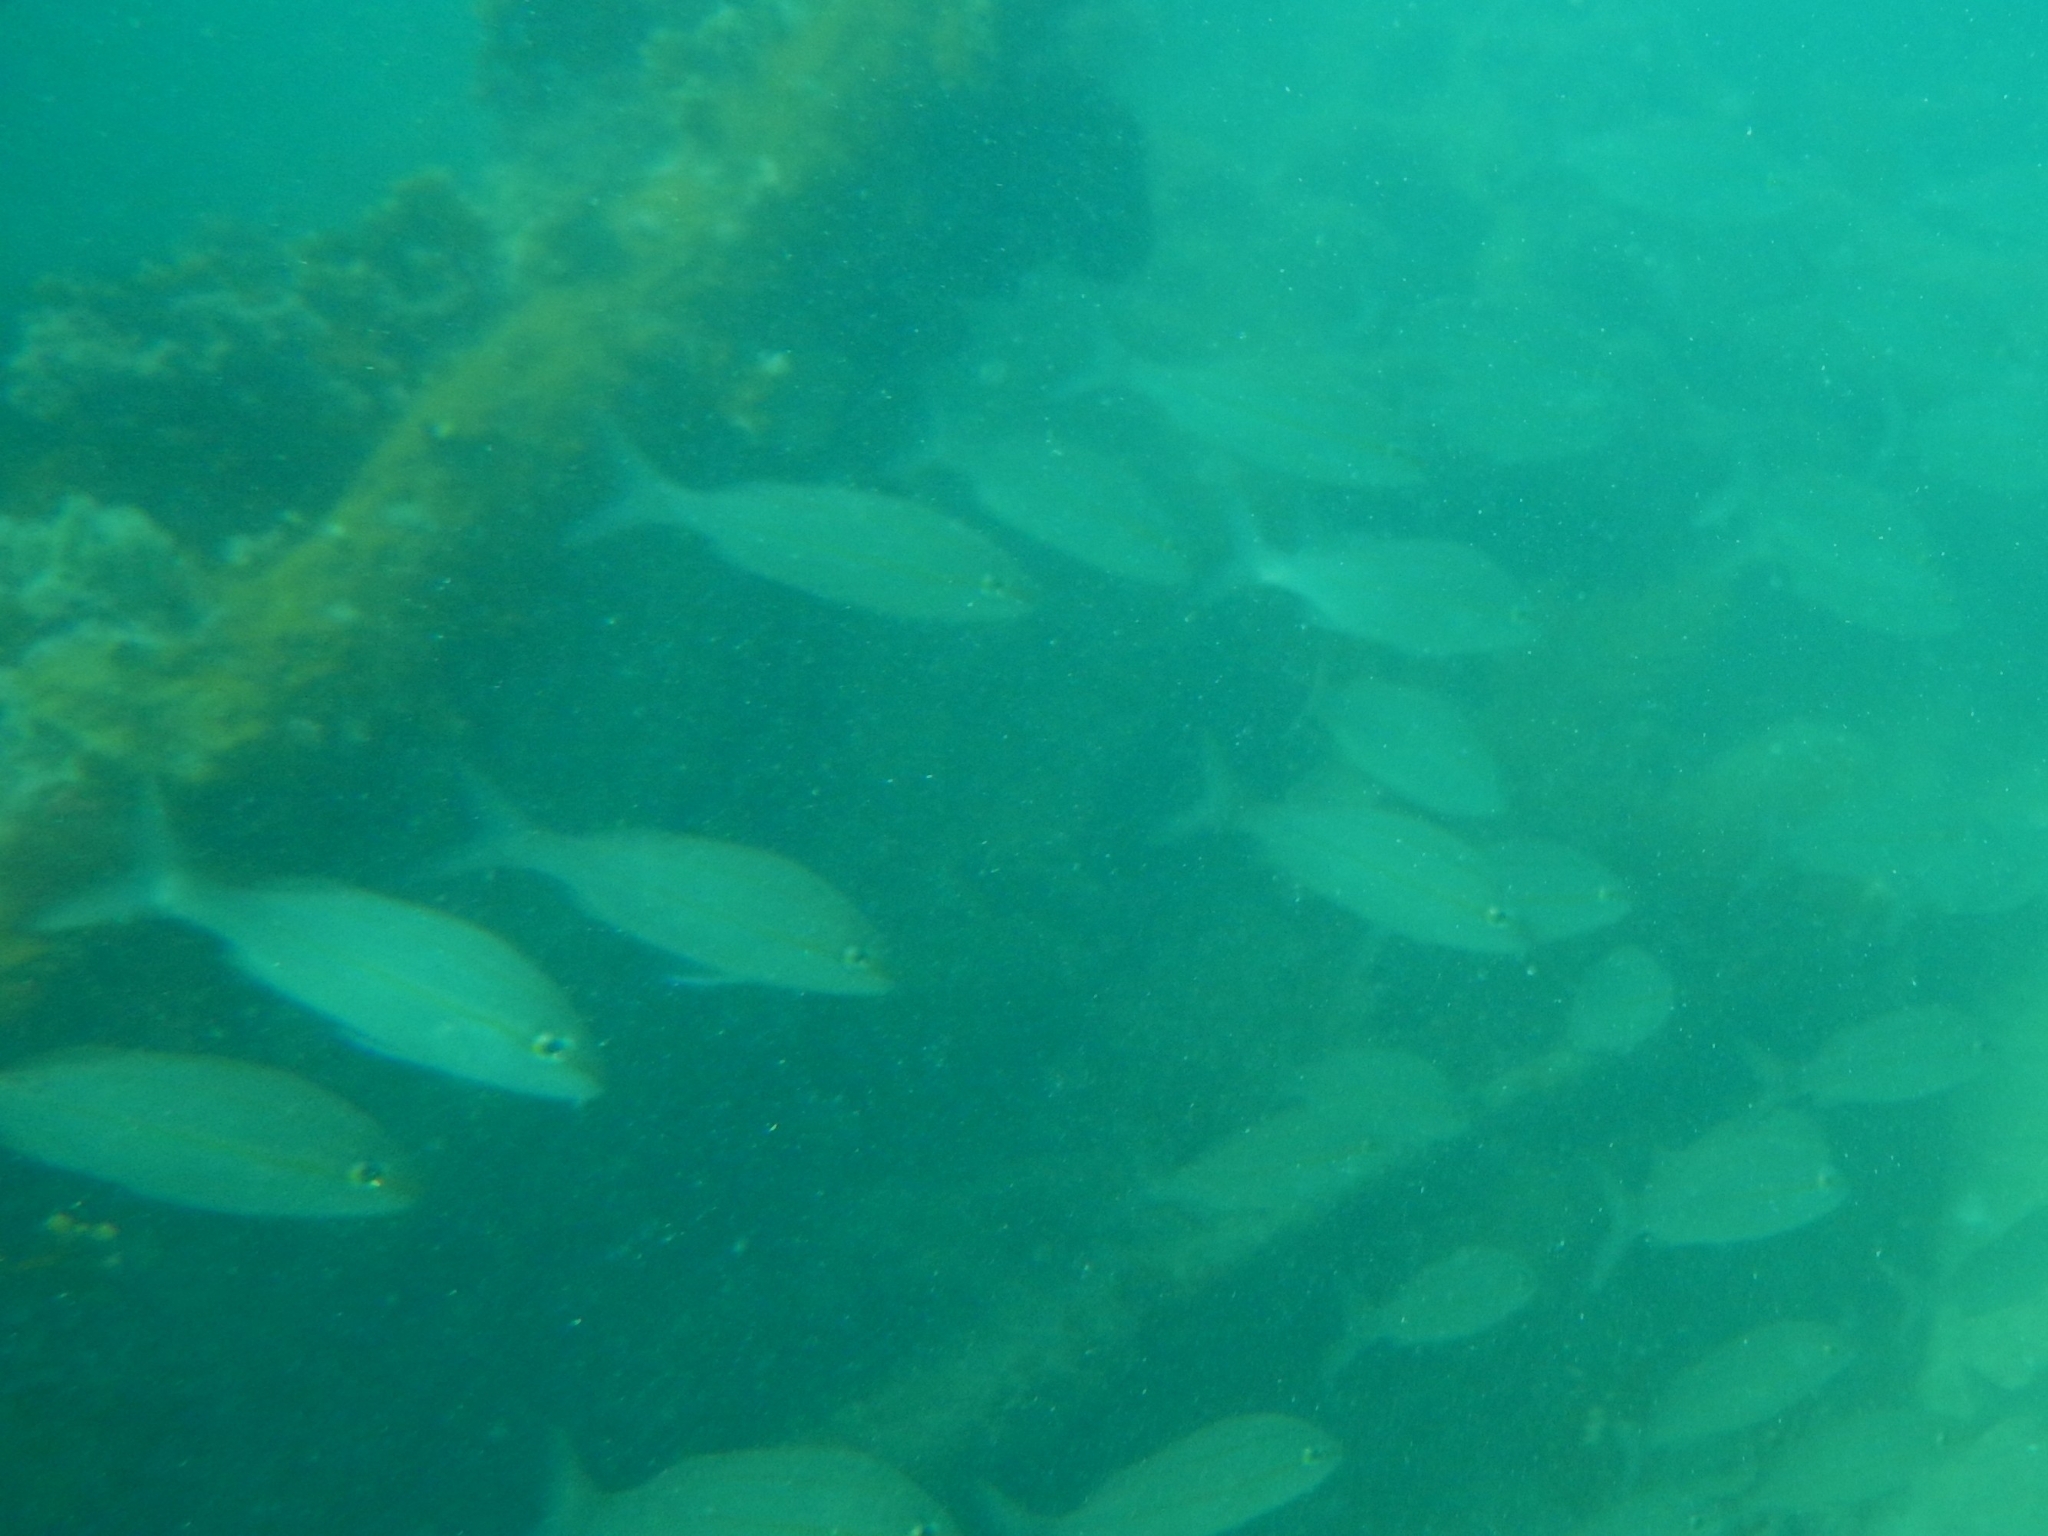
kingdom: Animalia
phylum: Chordata
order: Perciformes
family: Haemulidae
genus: Haemulon
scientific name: Haemulon aurolineatum
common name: Tomtate
